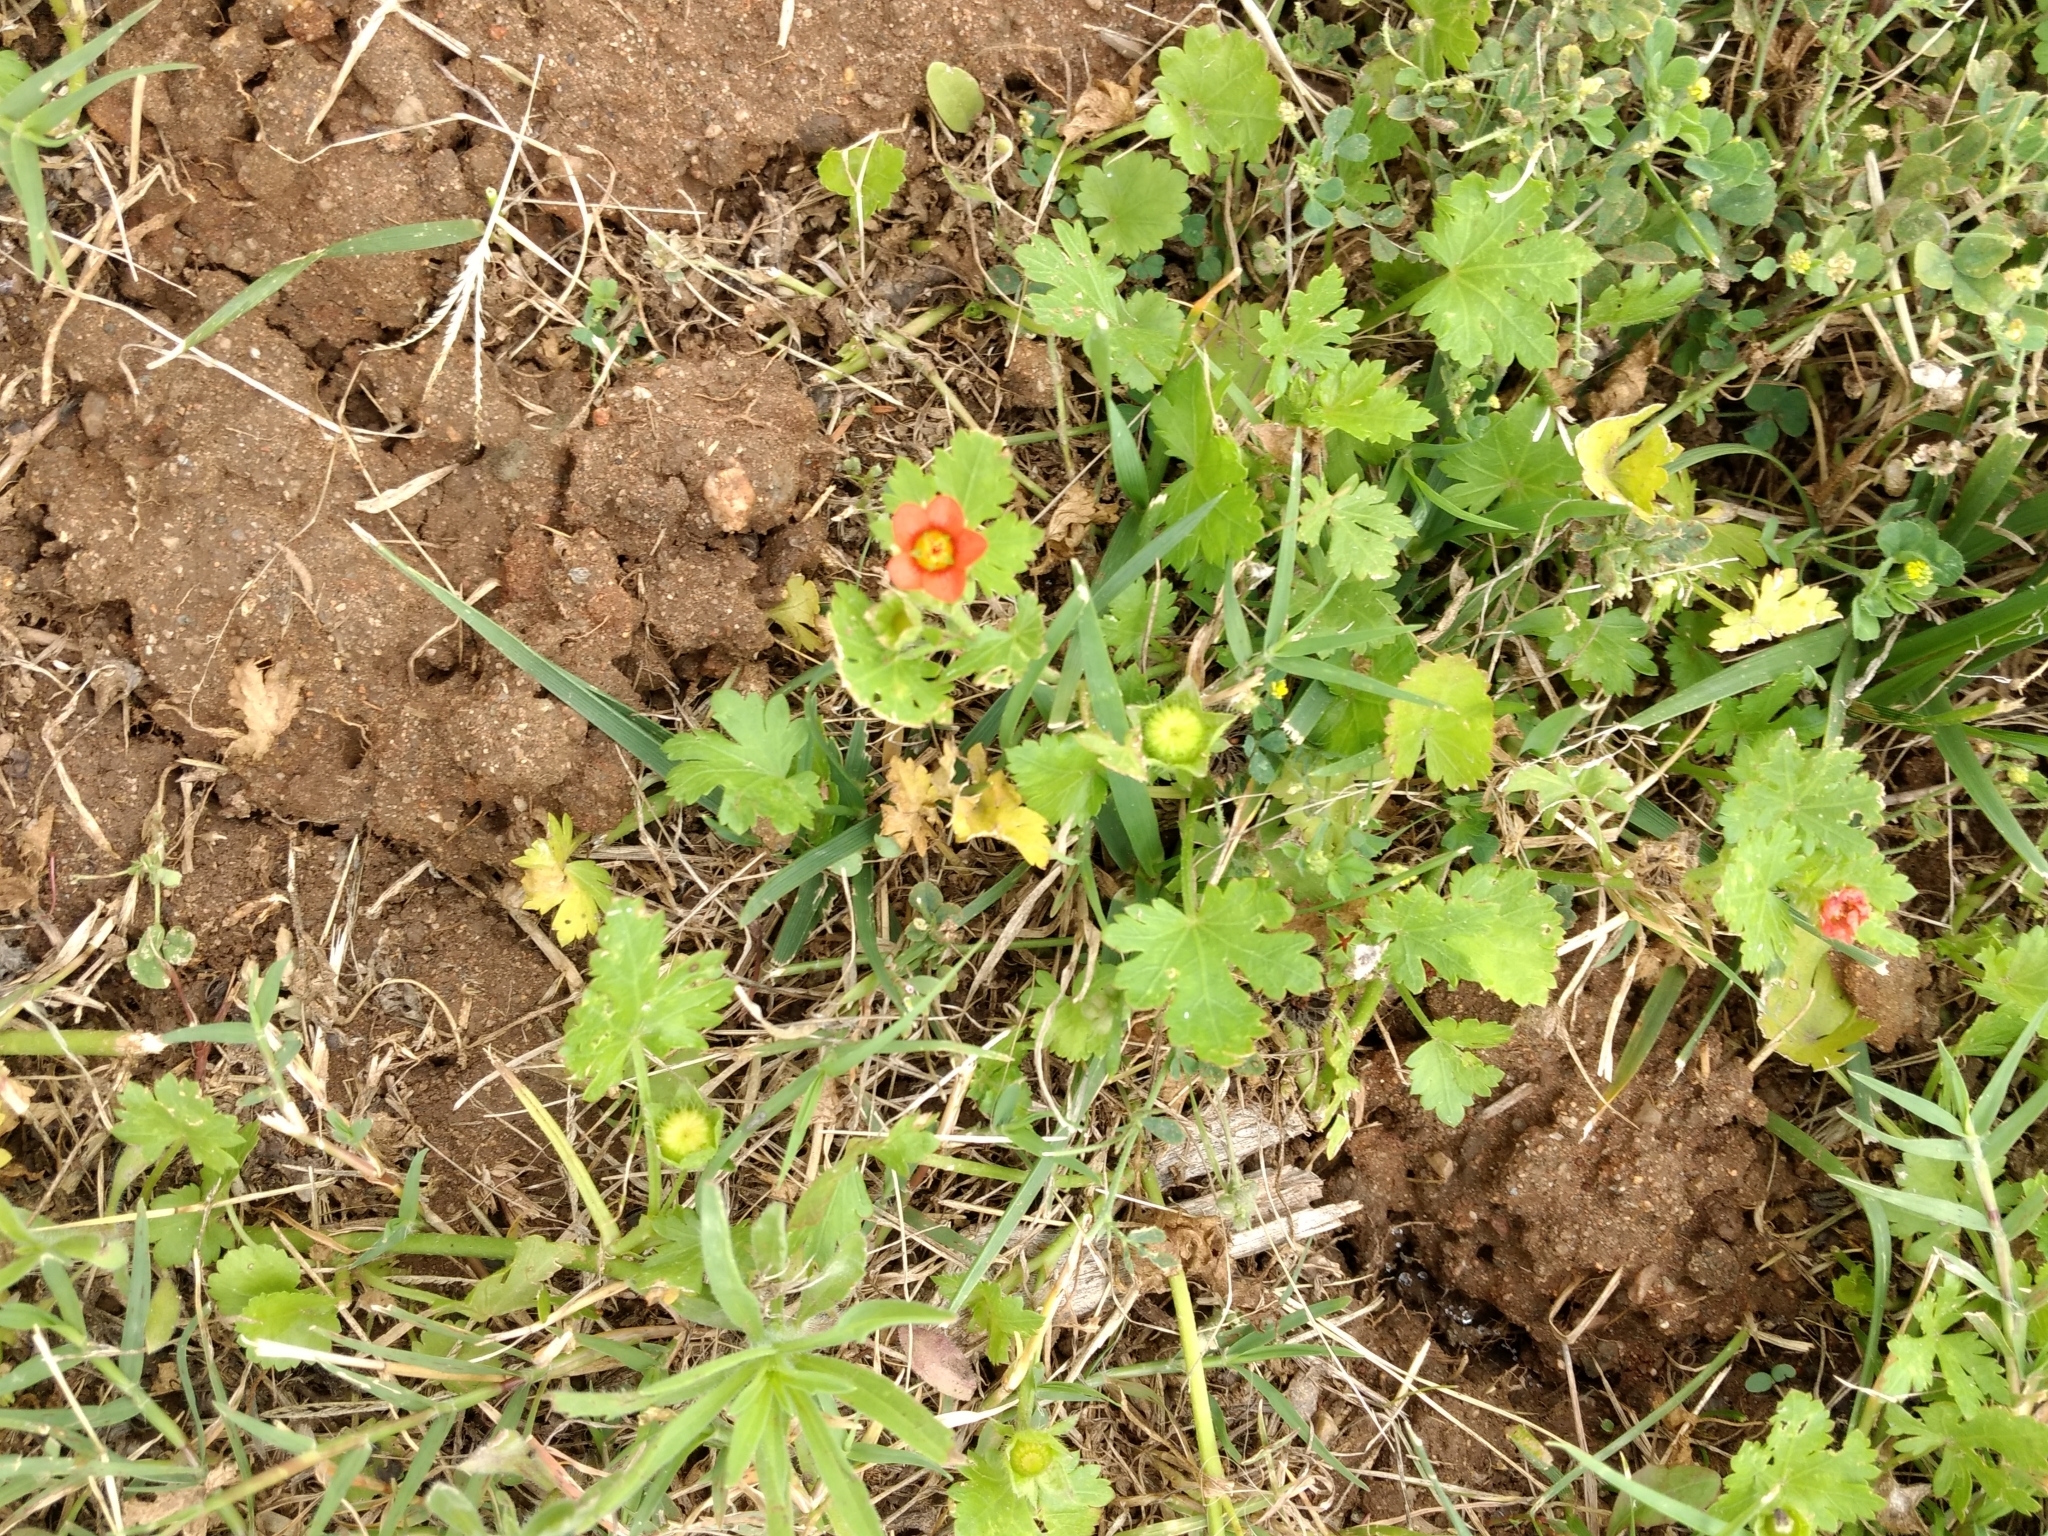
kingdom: Plantae
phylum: Tracheophyta
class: Magnoliopsida
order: Malvales
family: Malvaceae
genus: Modiola
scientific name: Modiola caroliniana
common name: Carolina bristlemallow
